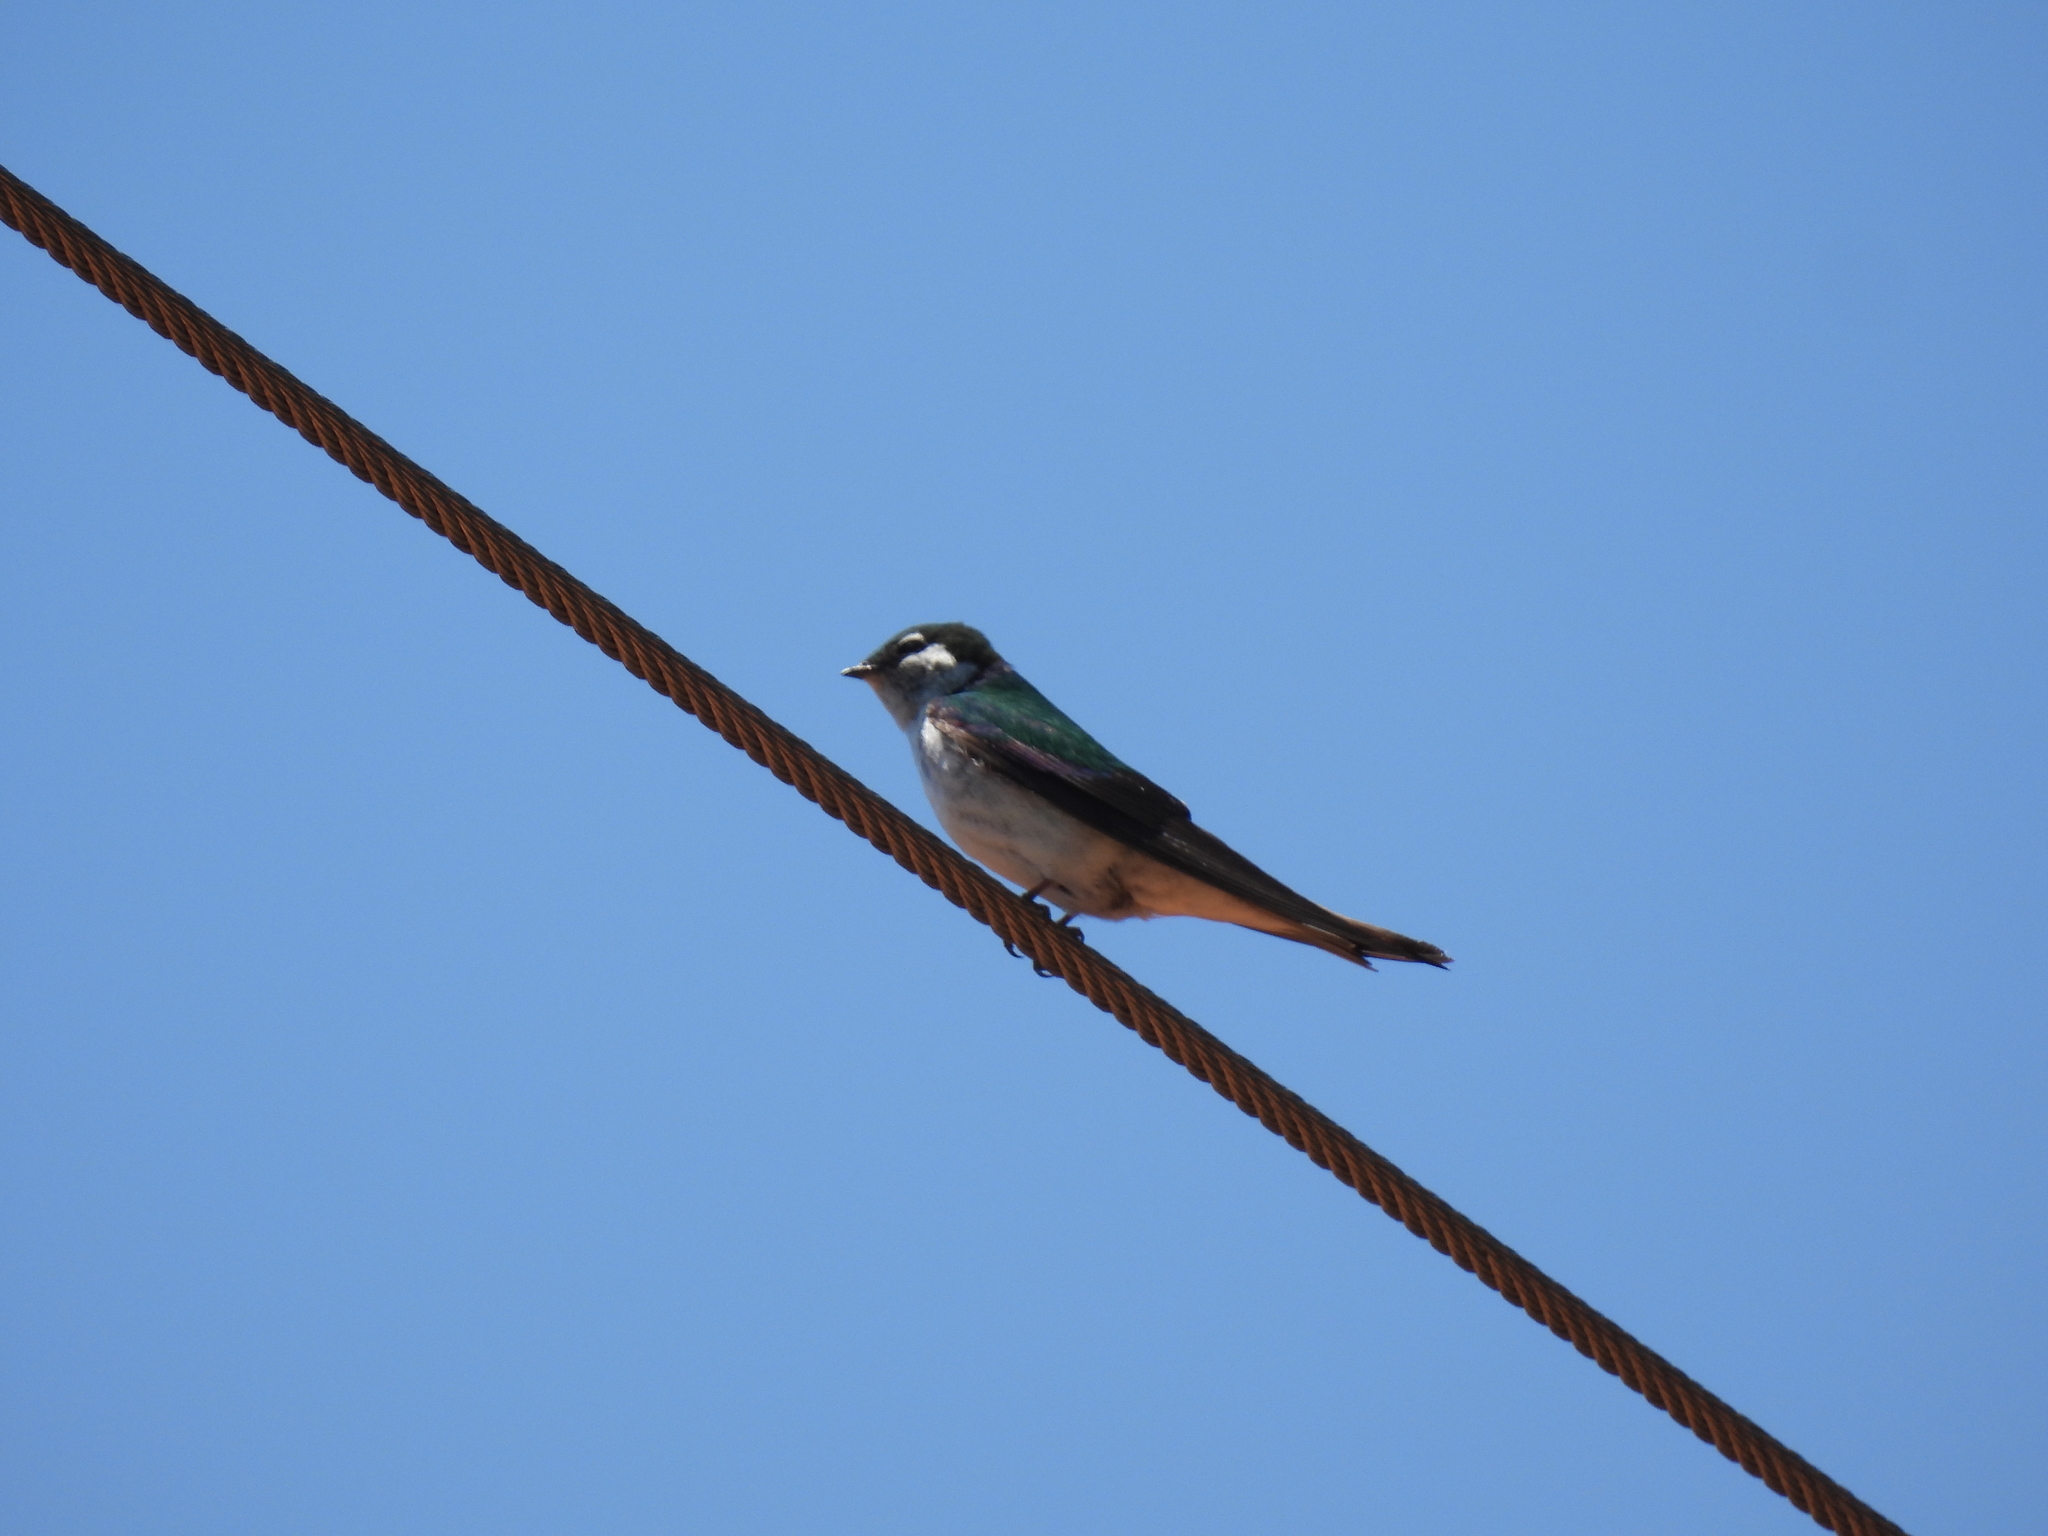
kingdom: Animalia
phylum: Chordata
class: Aves
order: Passeriformes
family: Hirundinidae
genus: Tachycineta
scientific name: Tachycineta thalassina
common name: Violet-green swallow
